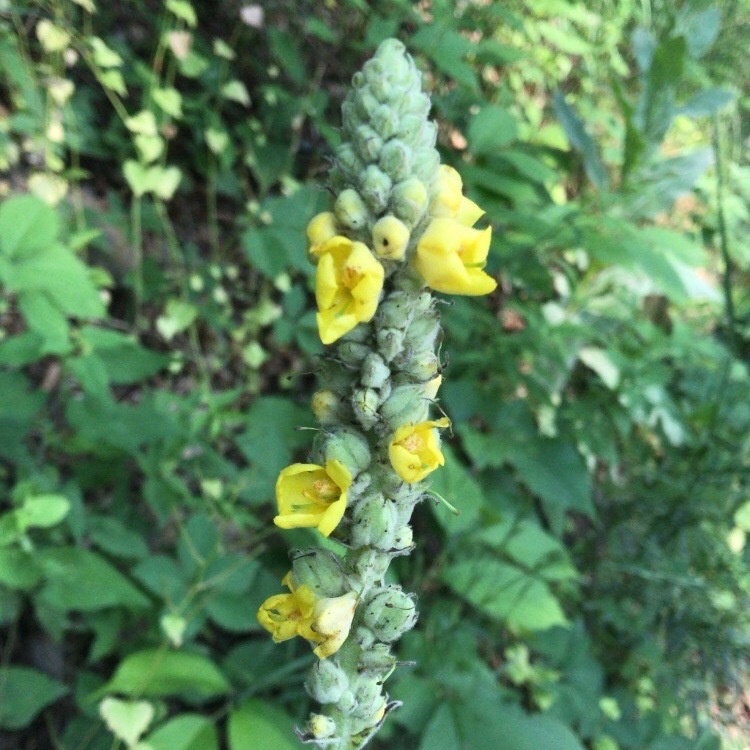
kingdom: Plantae
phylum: Tracheophyta
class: Magnoliopsida
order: Lamiales
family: Scrophulariaceae
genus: Verbascum
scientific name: Verbascum thapsus
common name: Common mullein
